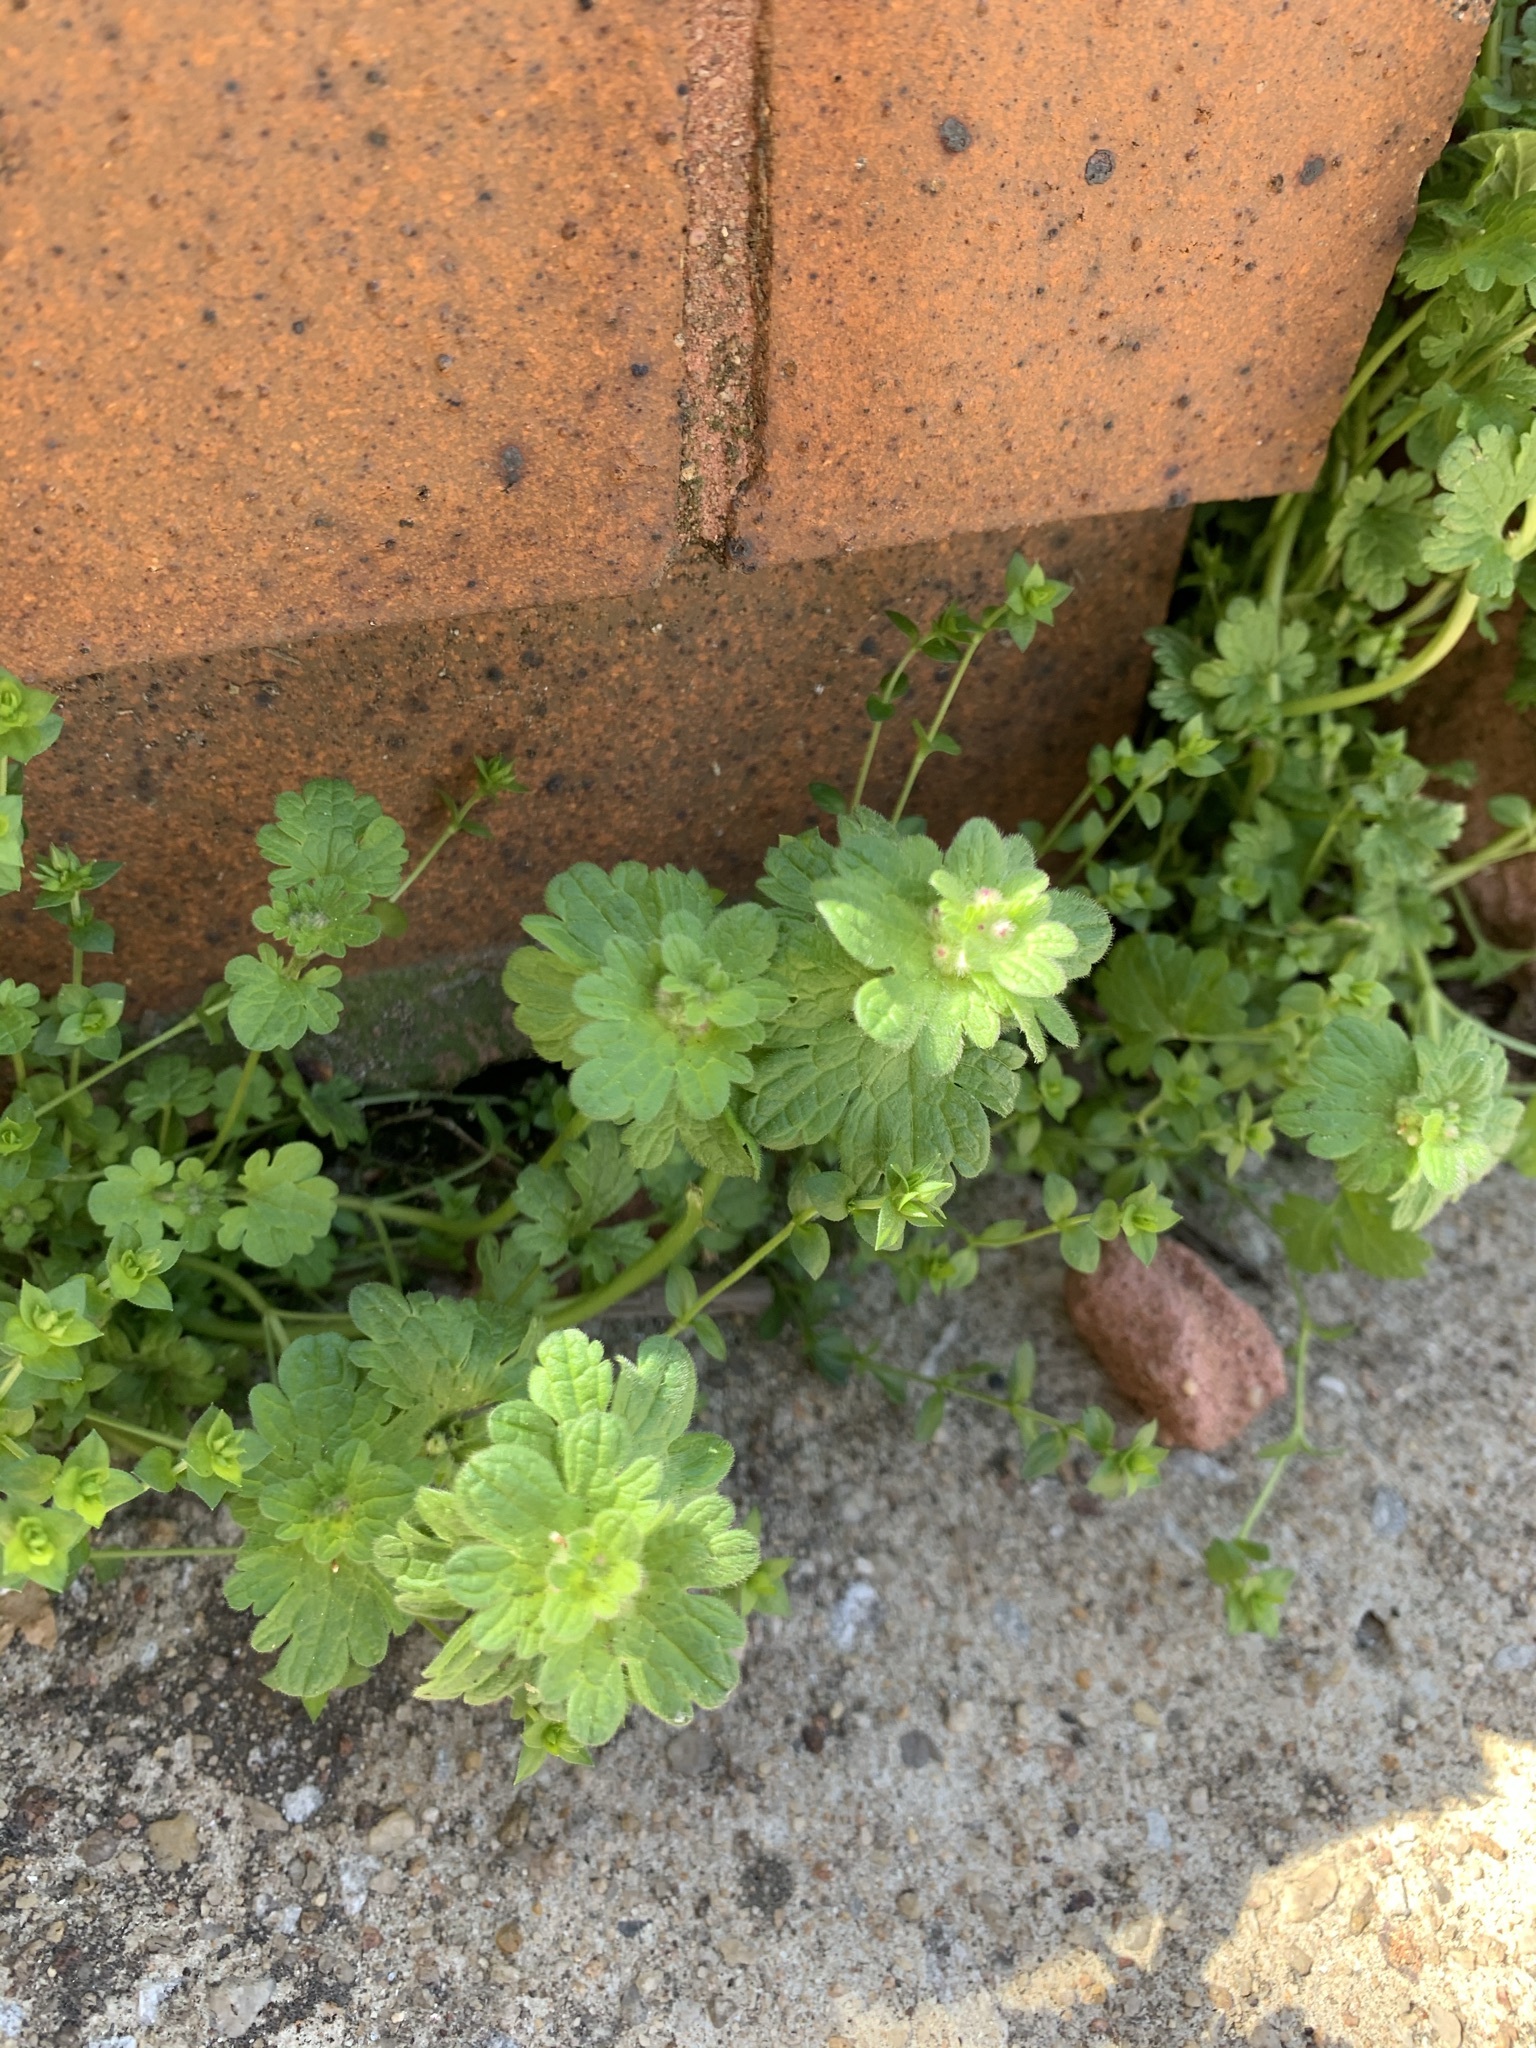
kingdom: Plantae
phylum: Tracheophyta
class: Magnoliopsida
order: Lamiales
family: Lamiaceae
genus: Lamium
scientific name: Lamium amplexicaule
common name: Henbit dead-nettle
